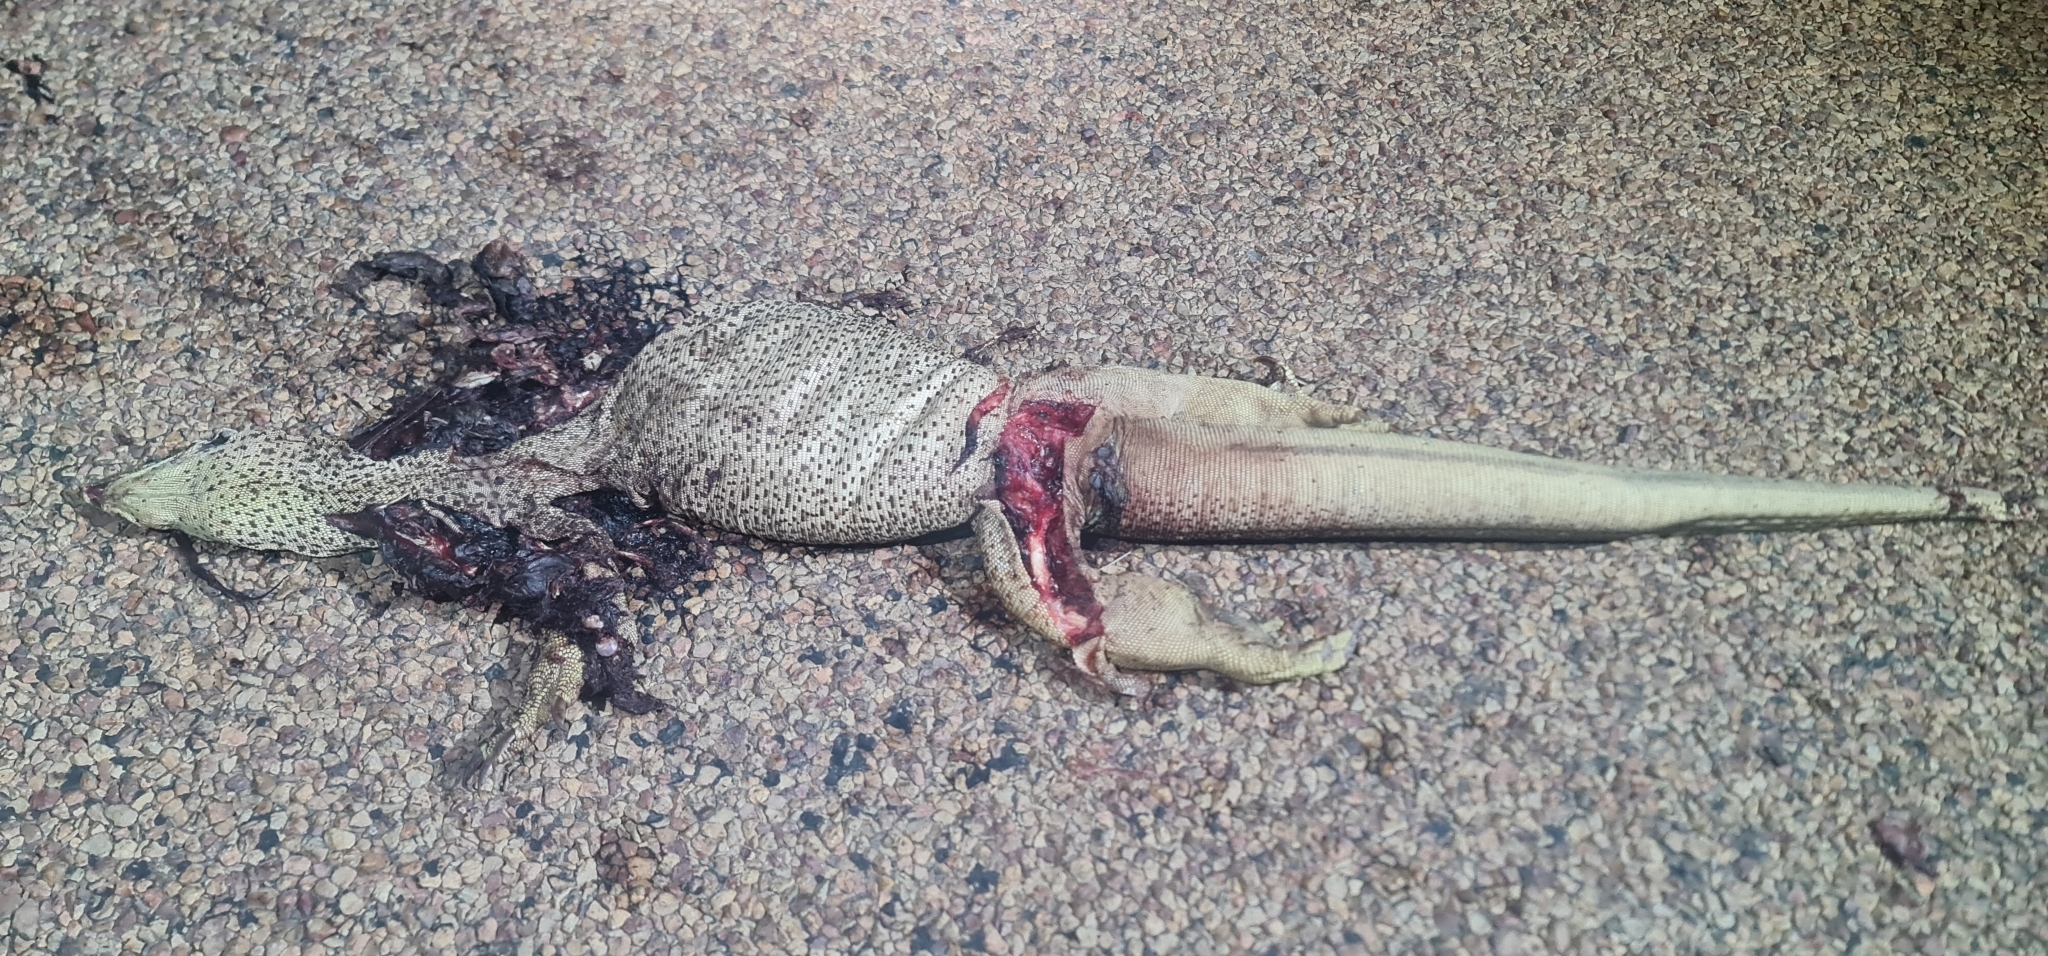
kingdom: Animalia
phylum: Chordata
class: Squamata
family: Varanidae
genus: Varanus
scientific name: Varanus panoptes
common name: Yellow-spotted monitor
